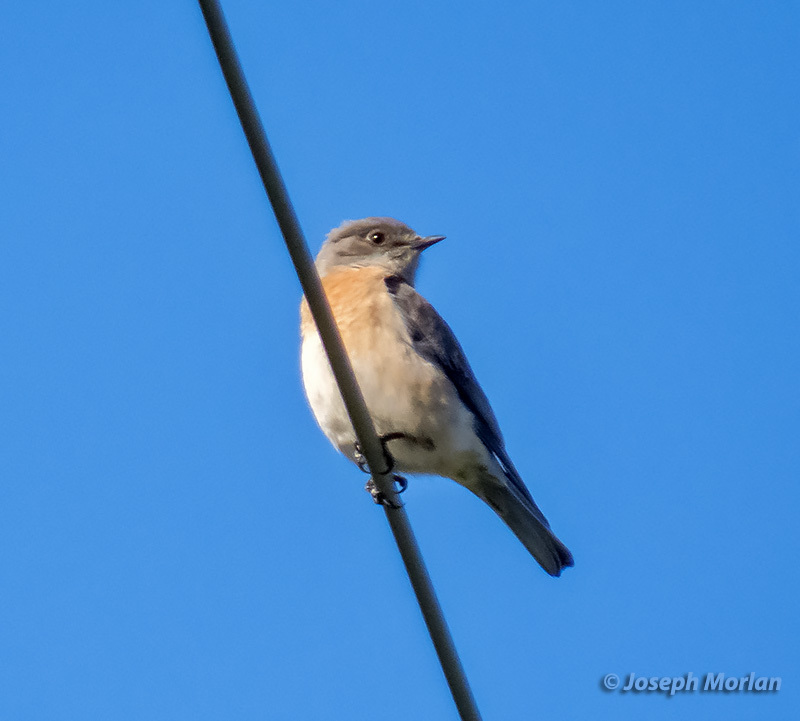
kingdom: Animalia
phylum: Chordata
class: Aves
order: Passeriformes
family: Turdidae
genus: Sialia
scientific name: Sialia mexicana
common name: Western bluebird
